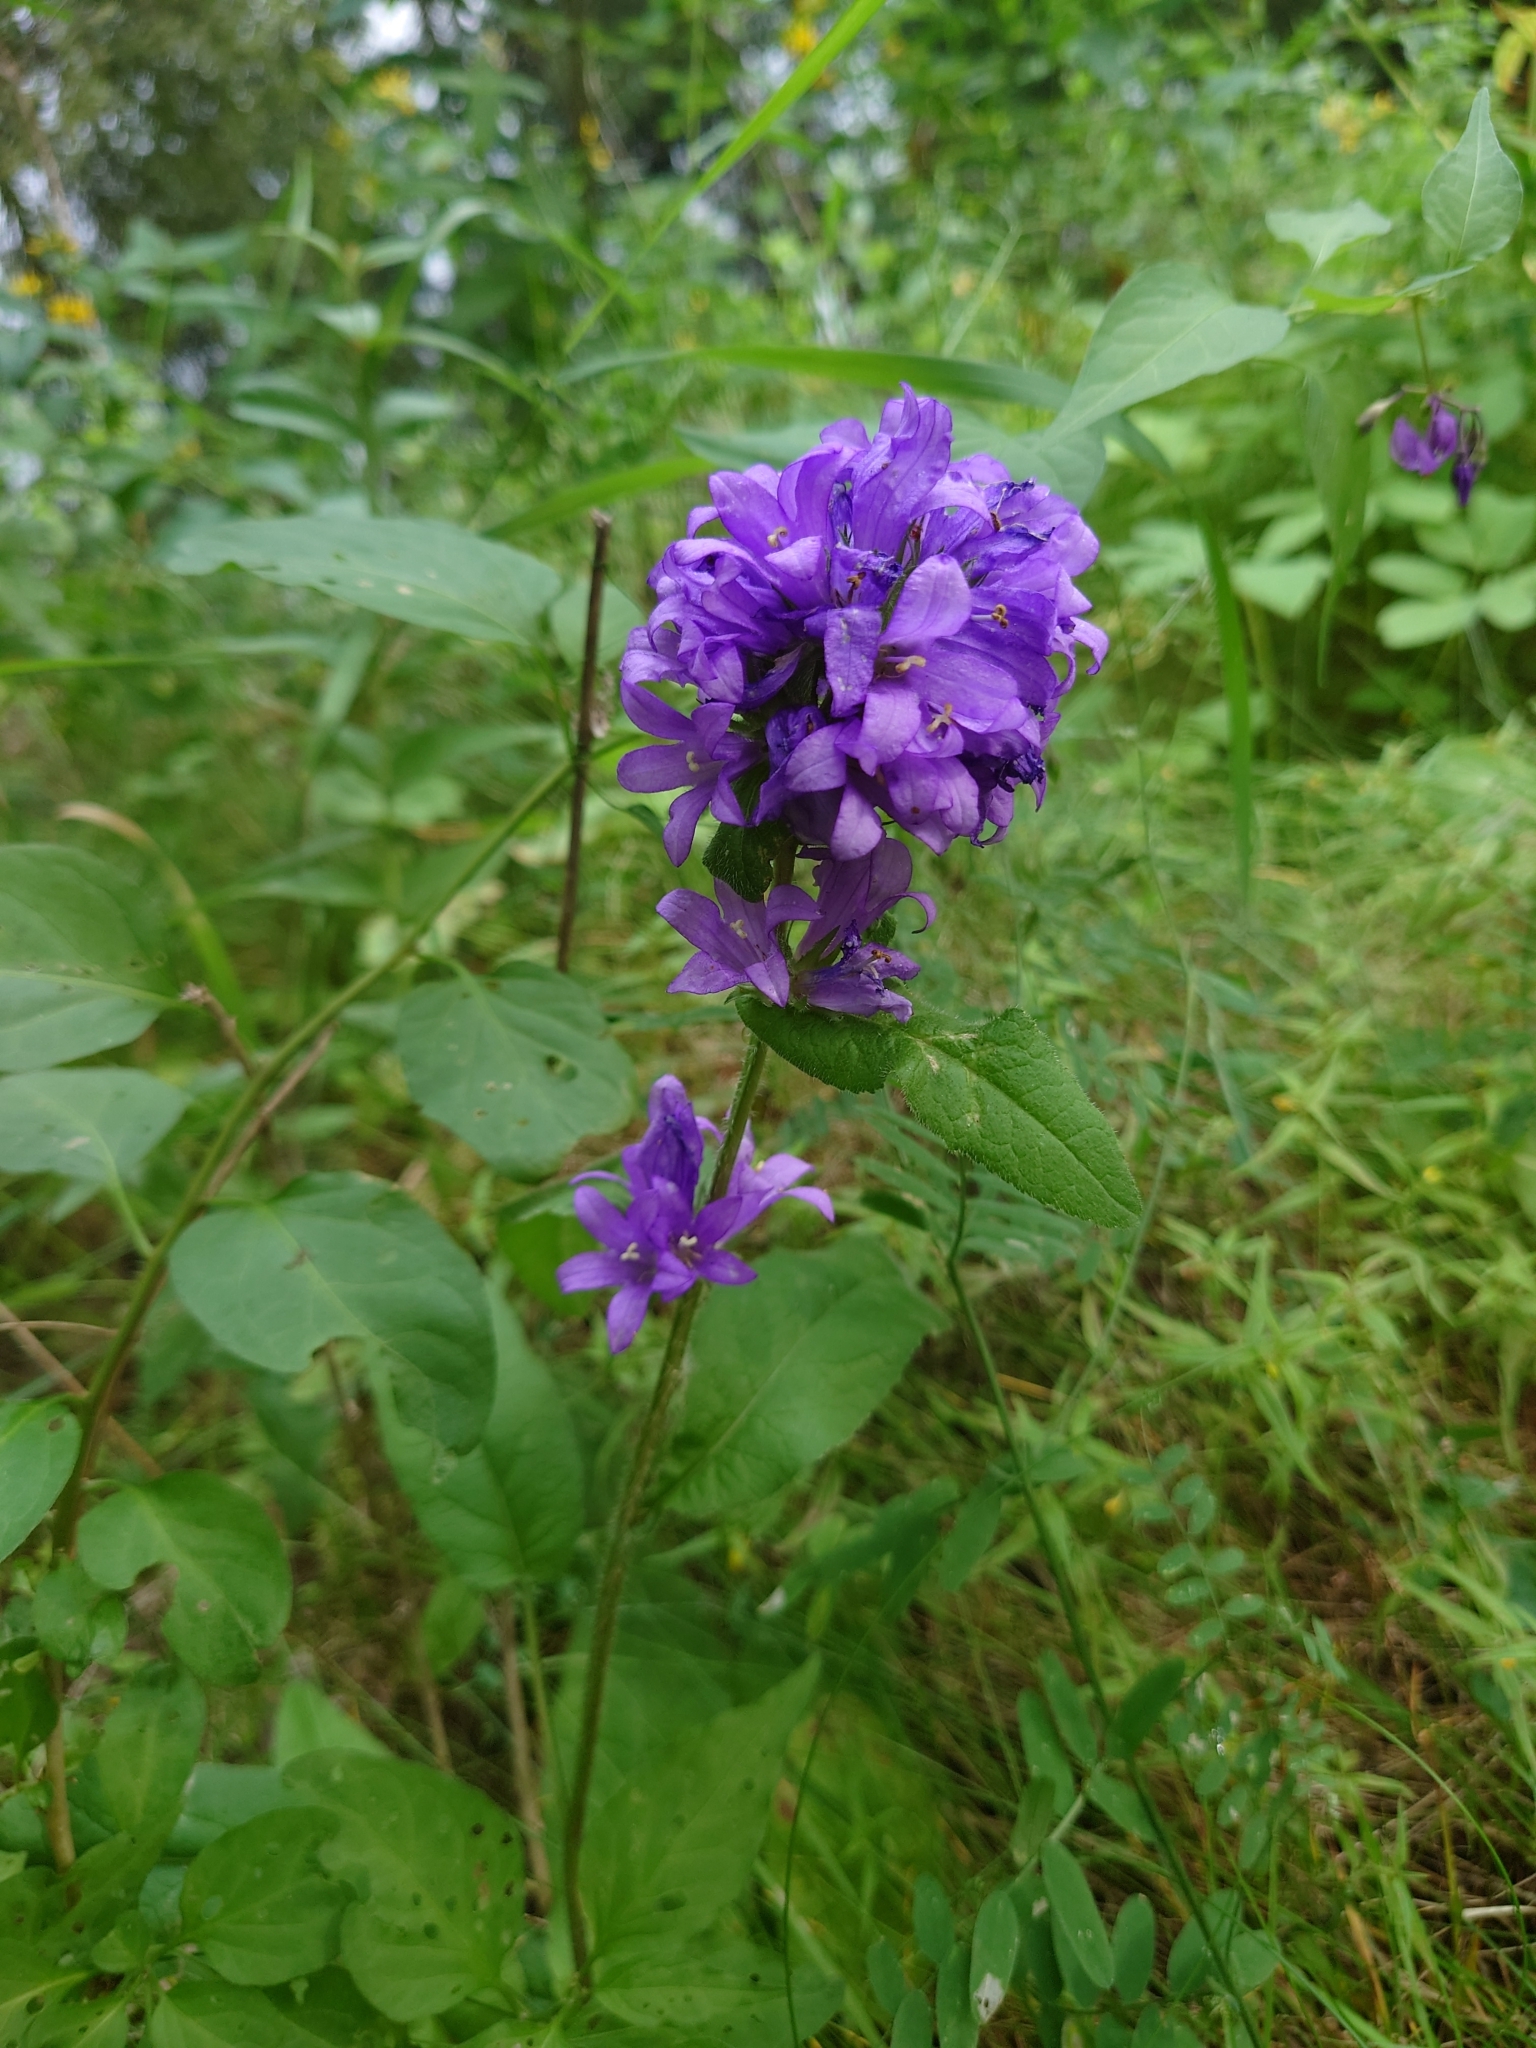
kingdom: Plantae
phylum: Tracheophyta
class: Magnoliopsida
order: Asterales
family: Campanulaceae
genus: Campanula
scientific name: Campanula glomerata
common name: Clustered bellflower
